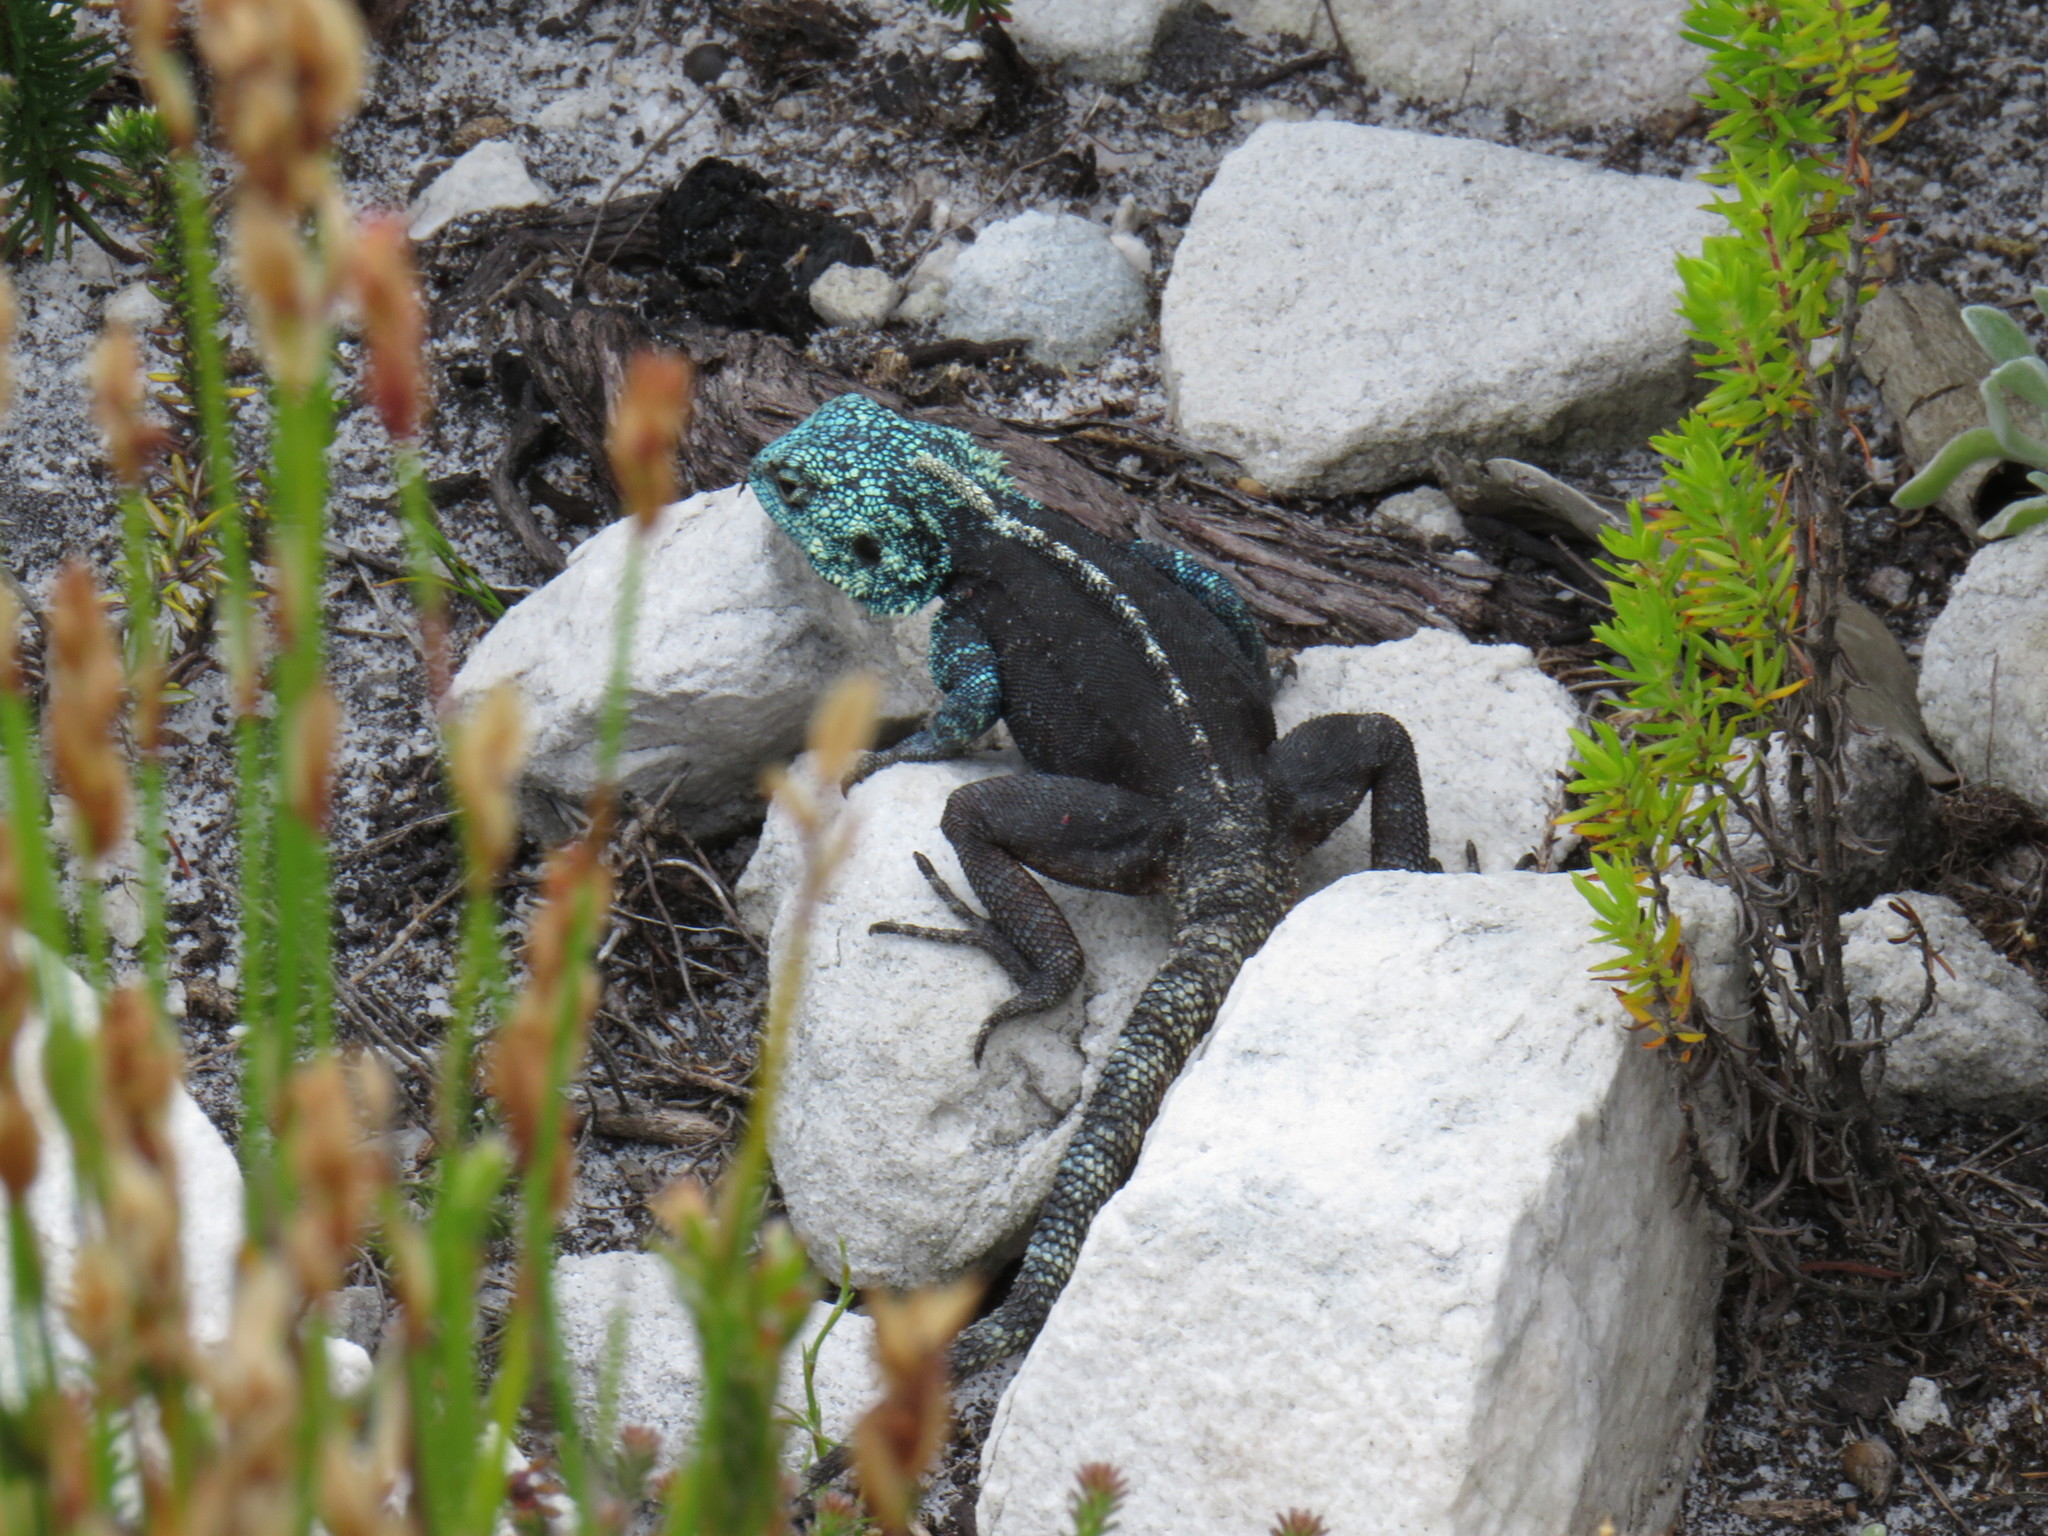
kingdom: Animalia
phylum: Chordata
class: Squamata
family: Agamidae
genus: Agama
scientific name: Agama atra
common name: Southern african rock agama
